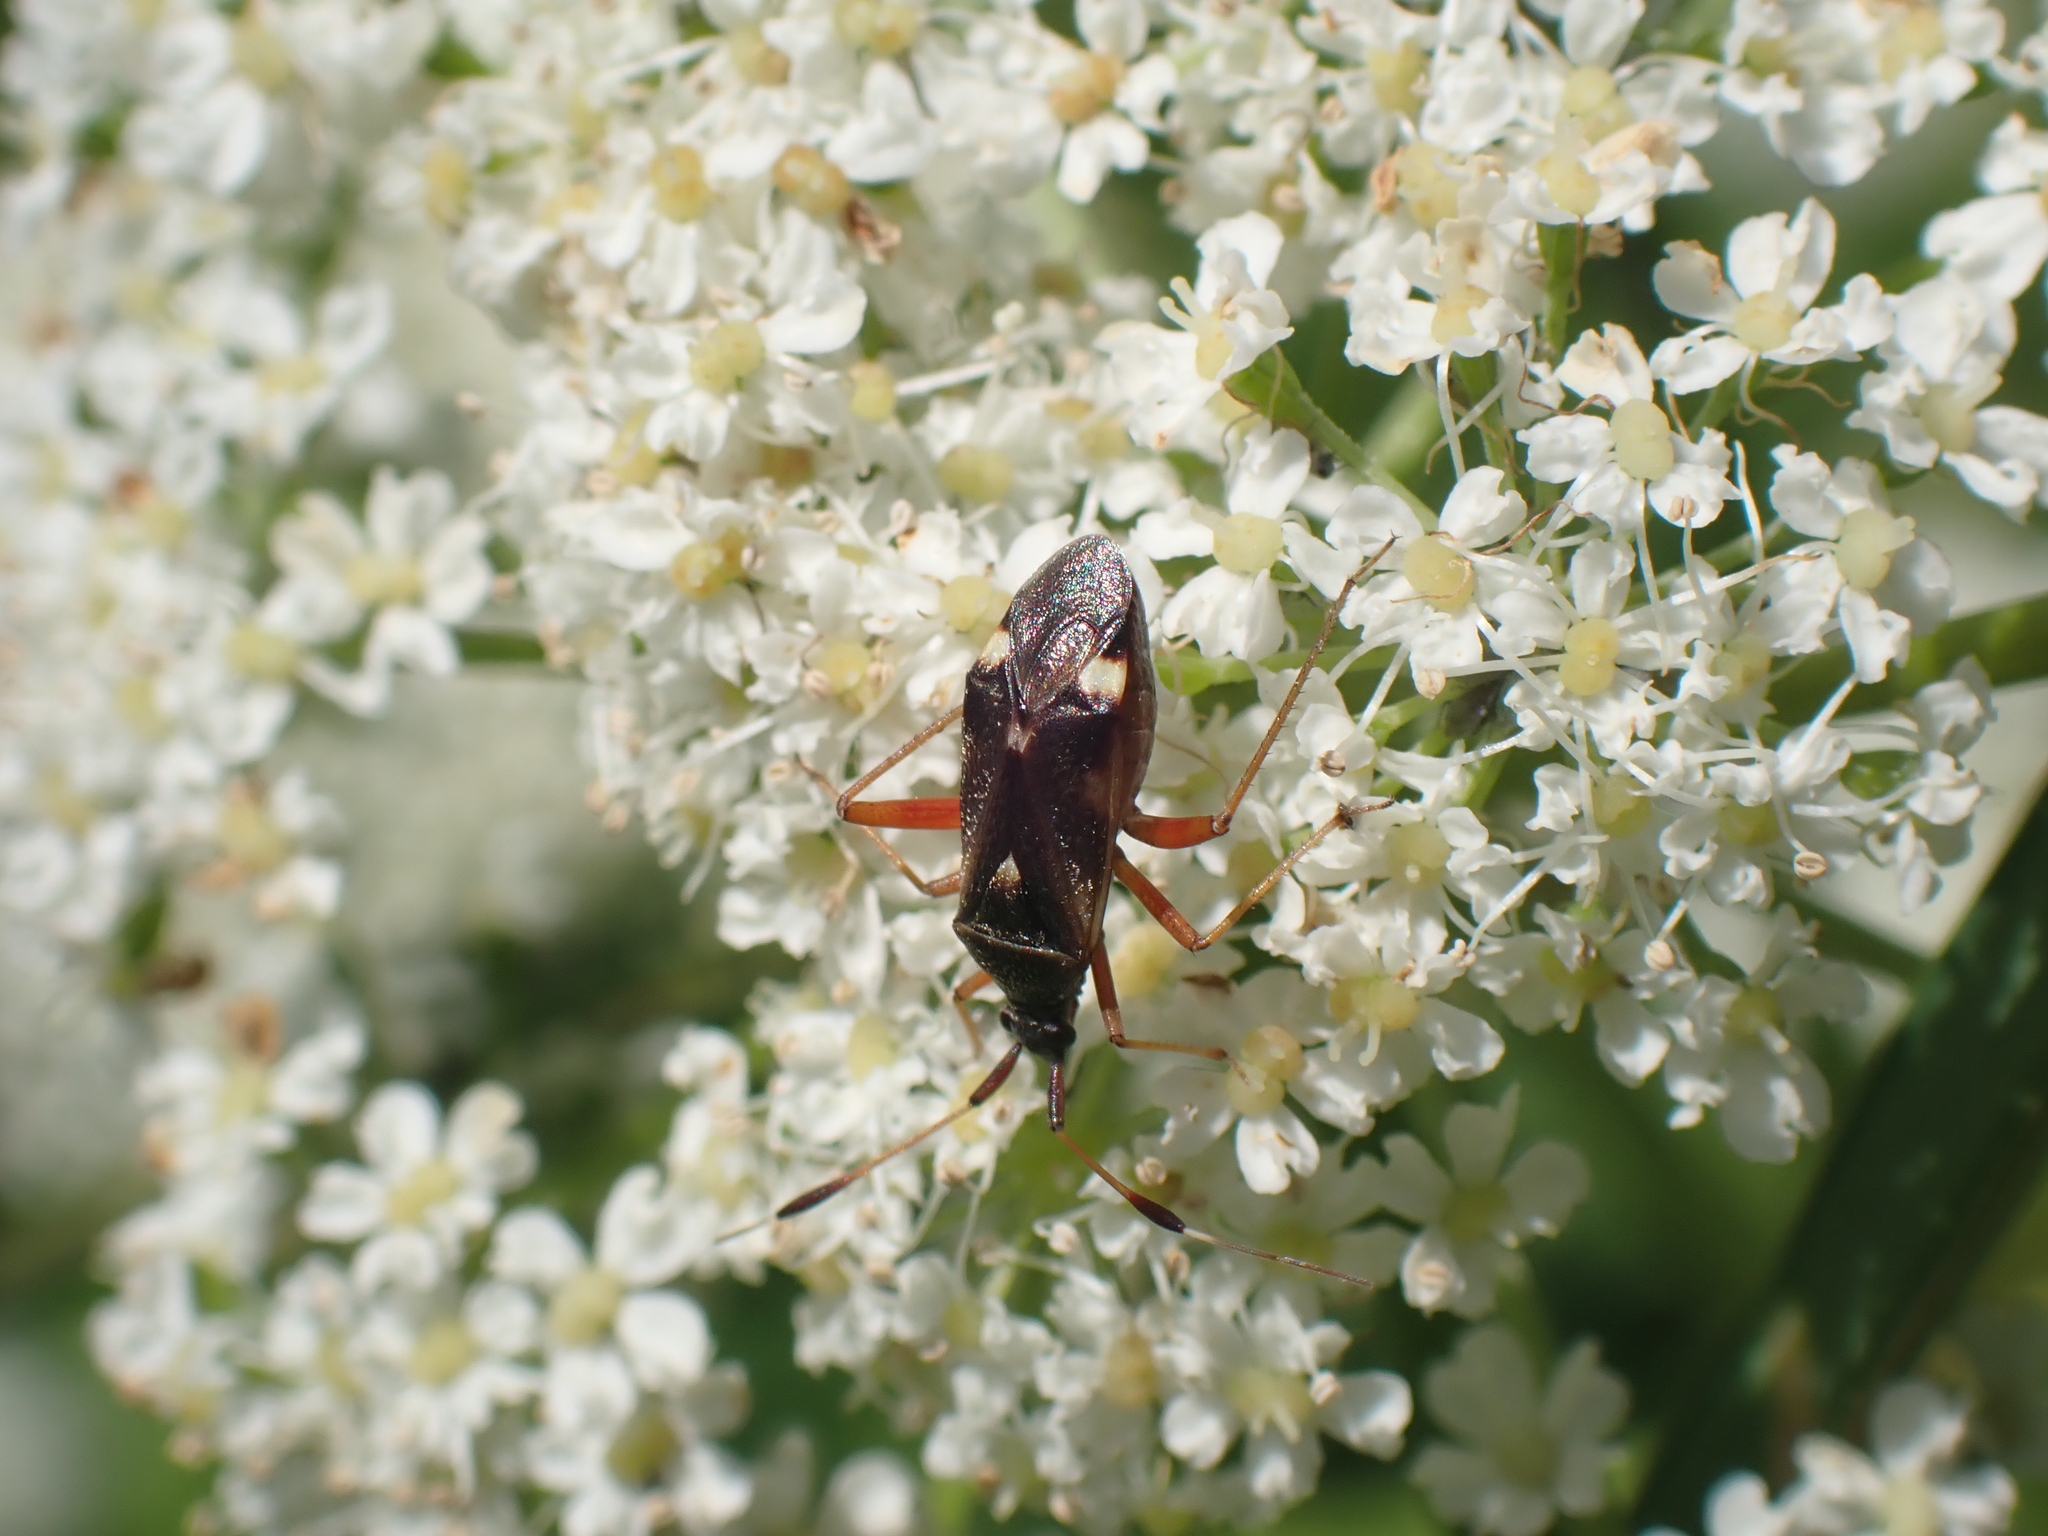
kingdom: Animalia
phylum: Arthropoda
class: Insecta
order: Hemiptera
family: Miridae
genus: Closterotomus
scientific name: Closterotomus biclavatus
